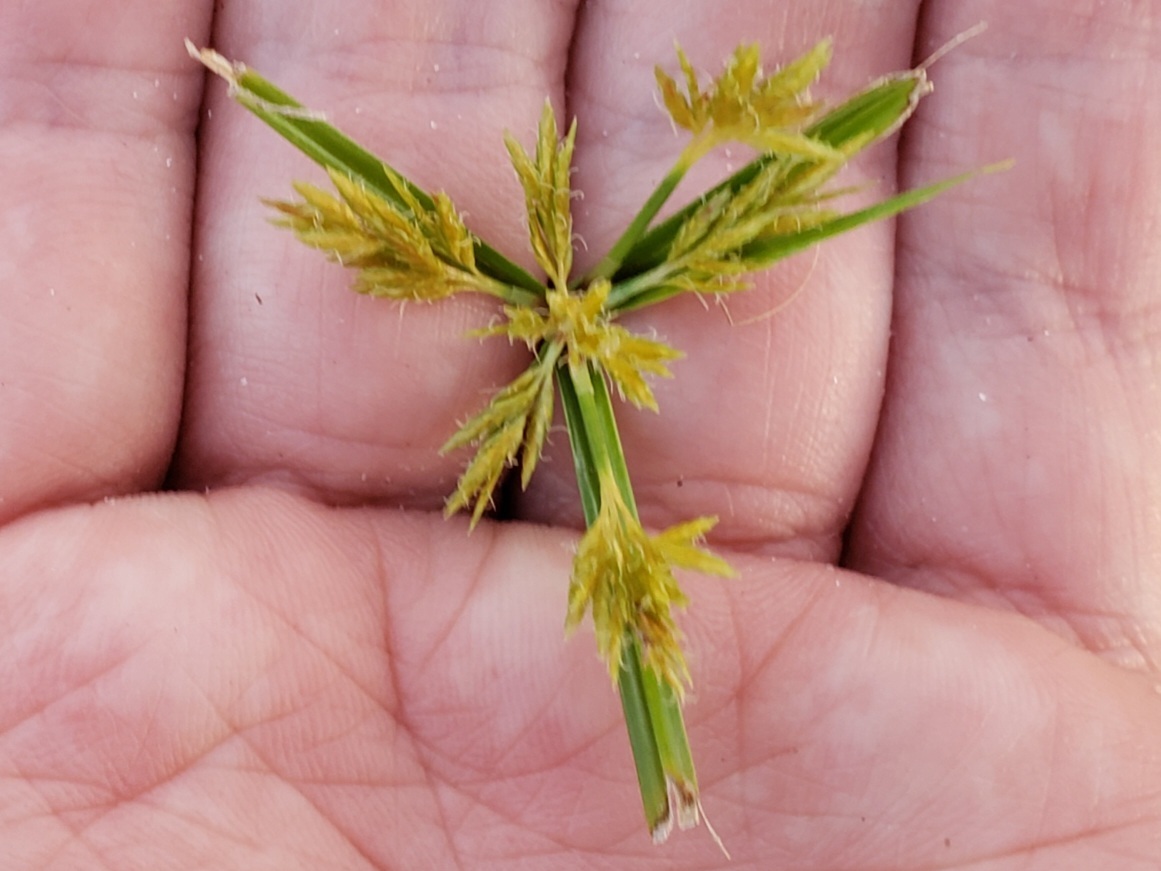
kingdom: Plantae
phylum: Tracheophyta
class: Liliopsida
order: Poales
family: Cyperaceae
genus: Cyperus
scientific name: Cyperus polystachyos
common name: Bunchy flat sedge
